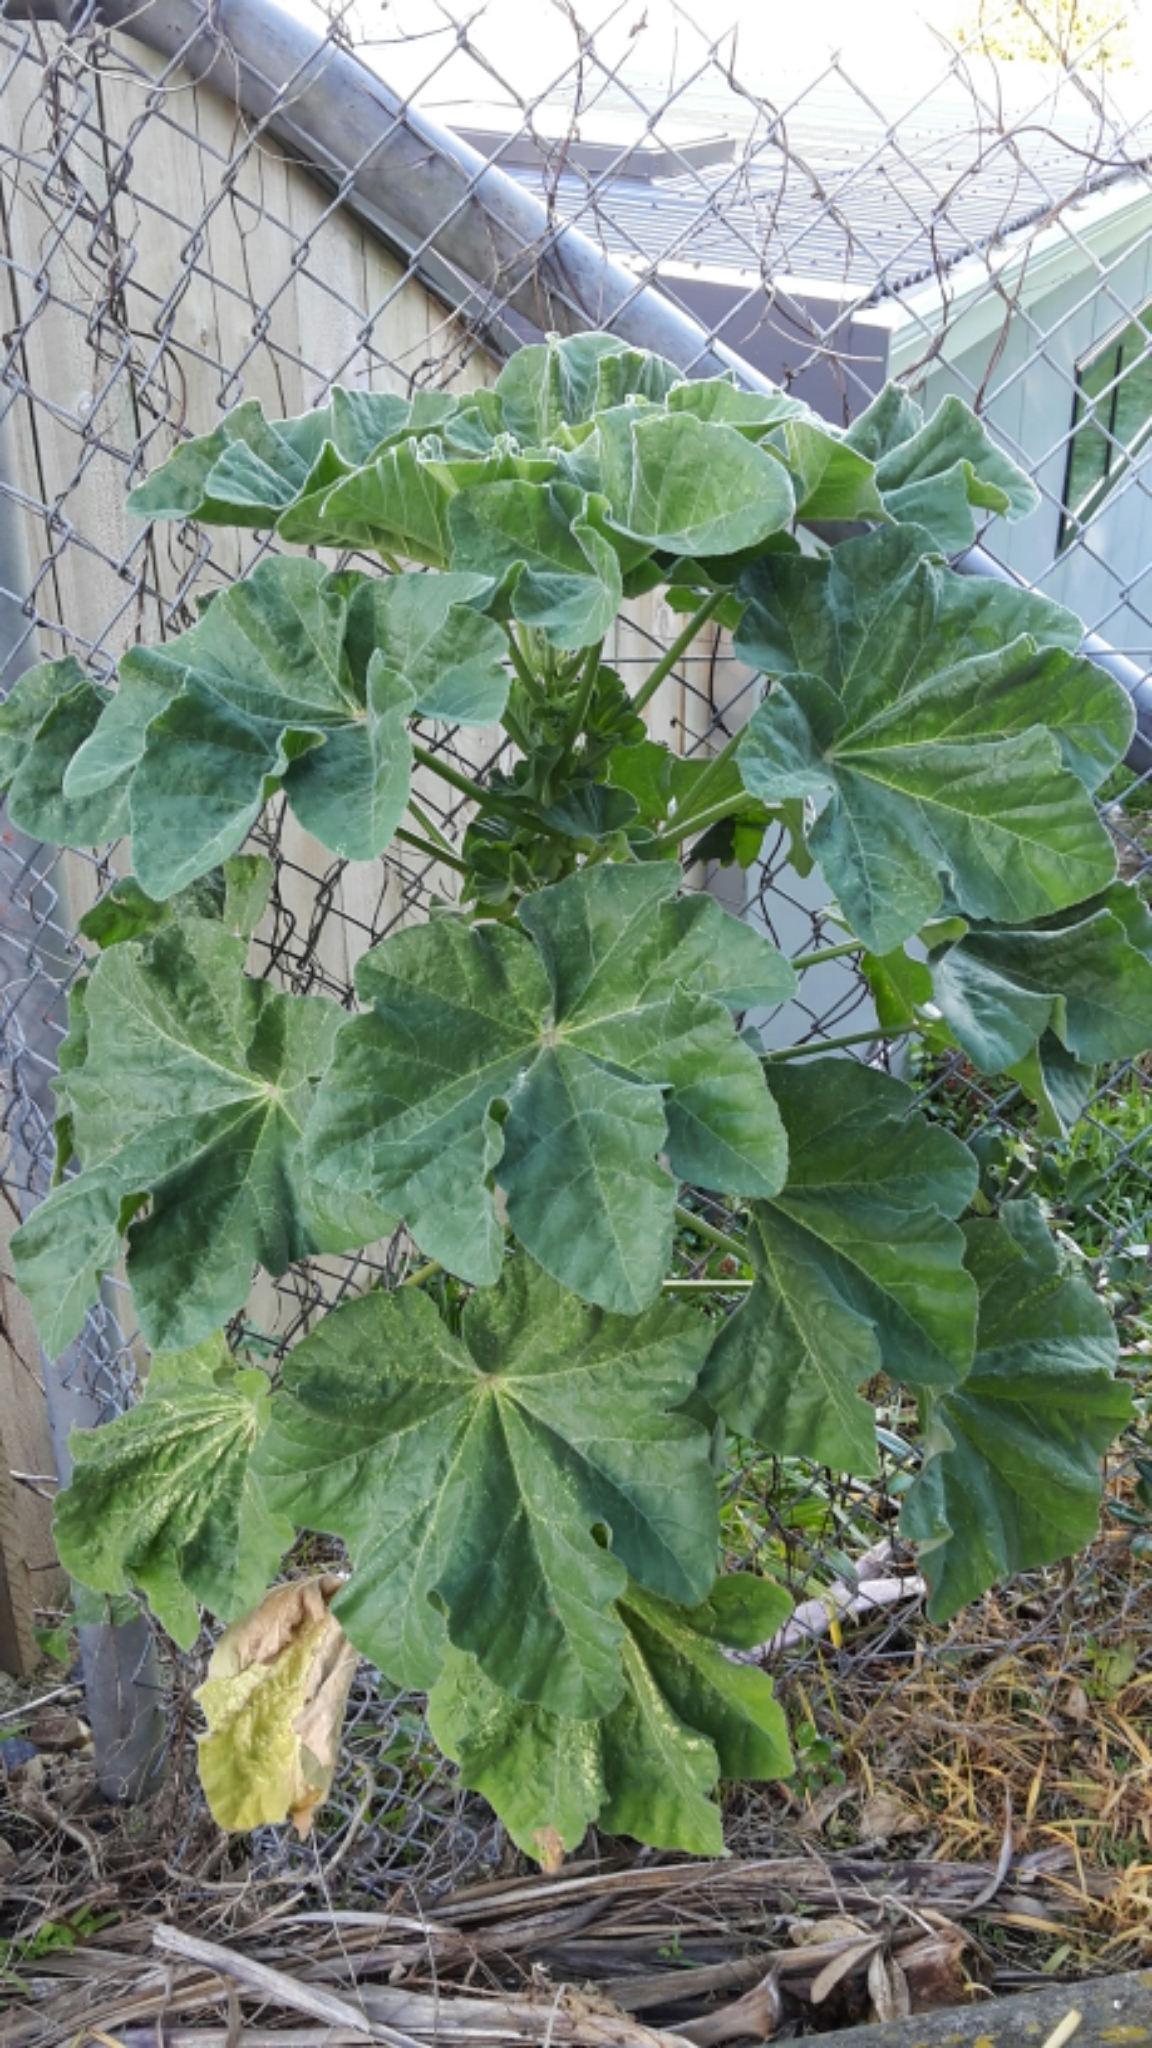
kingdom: Plantae
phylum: Tracheophyta
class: Magnoliopsida
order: Malvales
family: Malvaceae
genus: Malva
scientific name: Malva arborea
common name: Tree mallow
